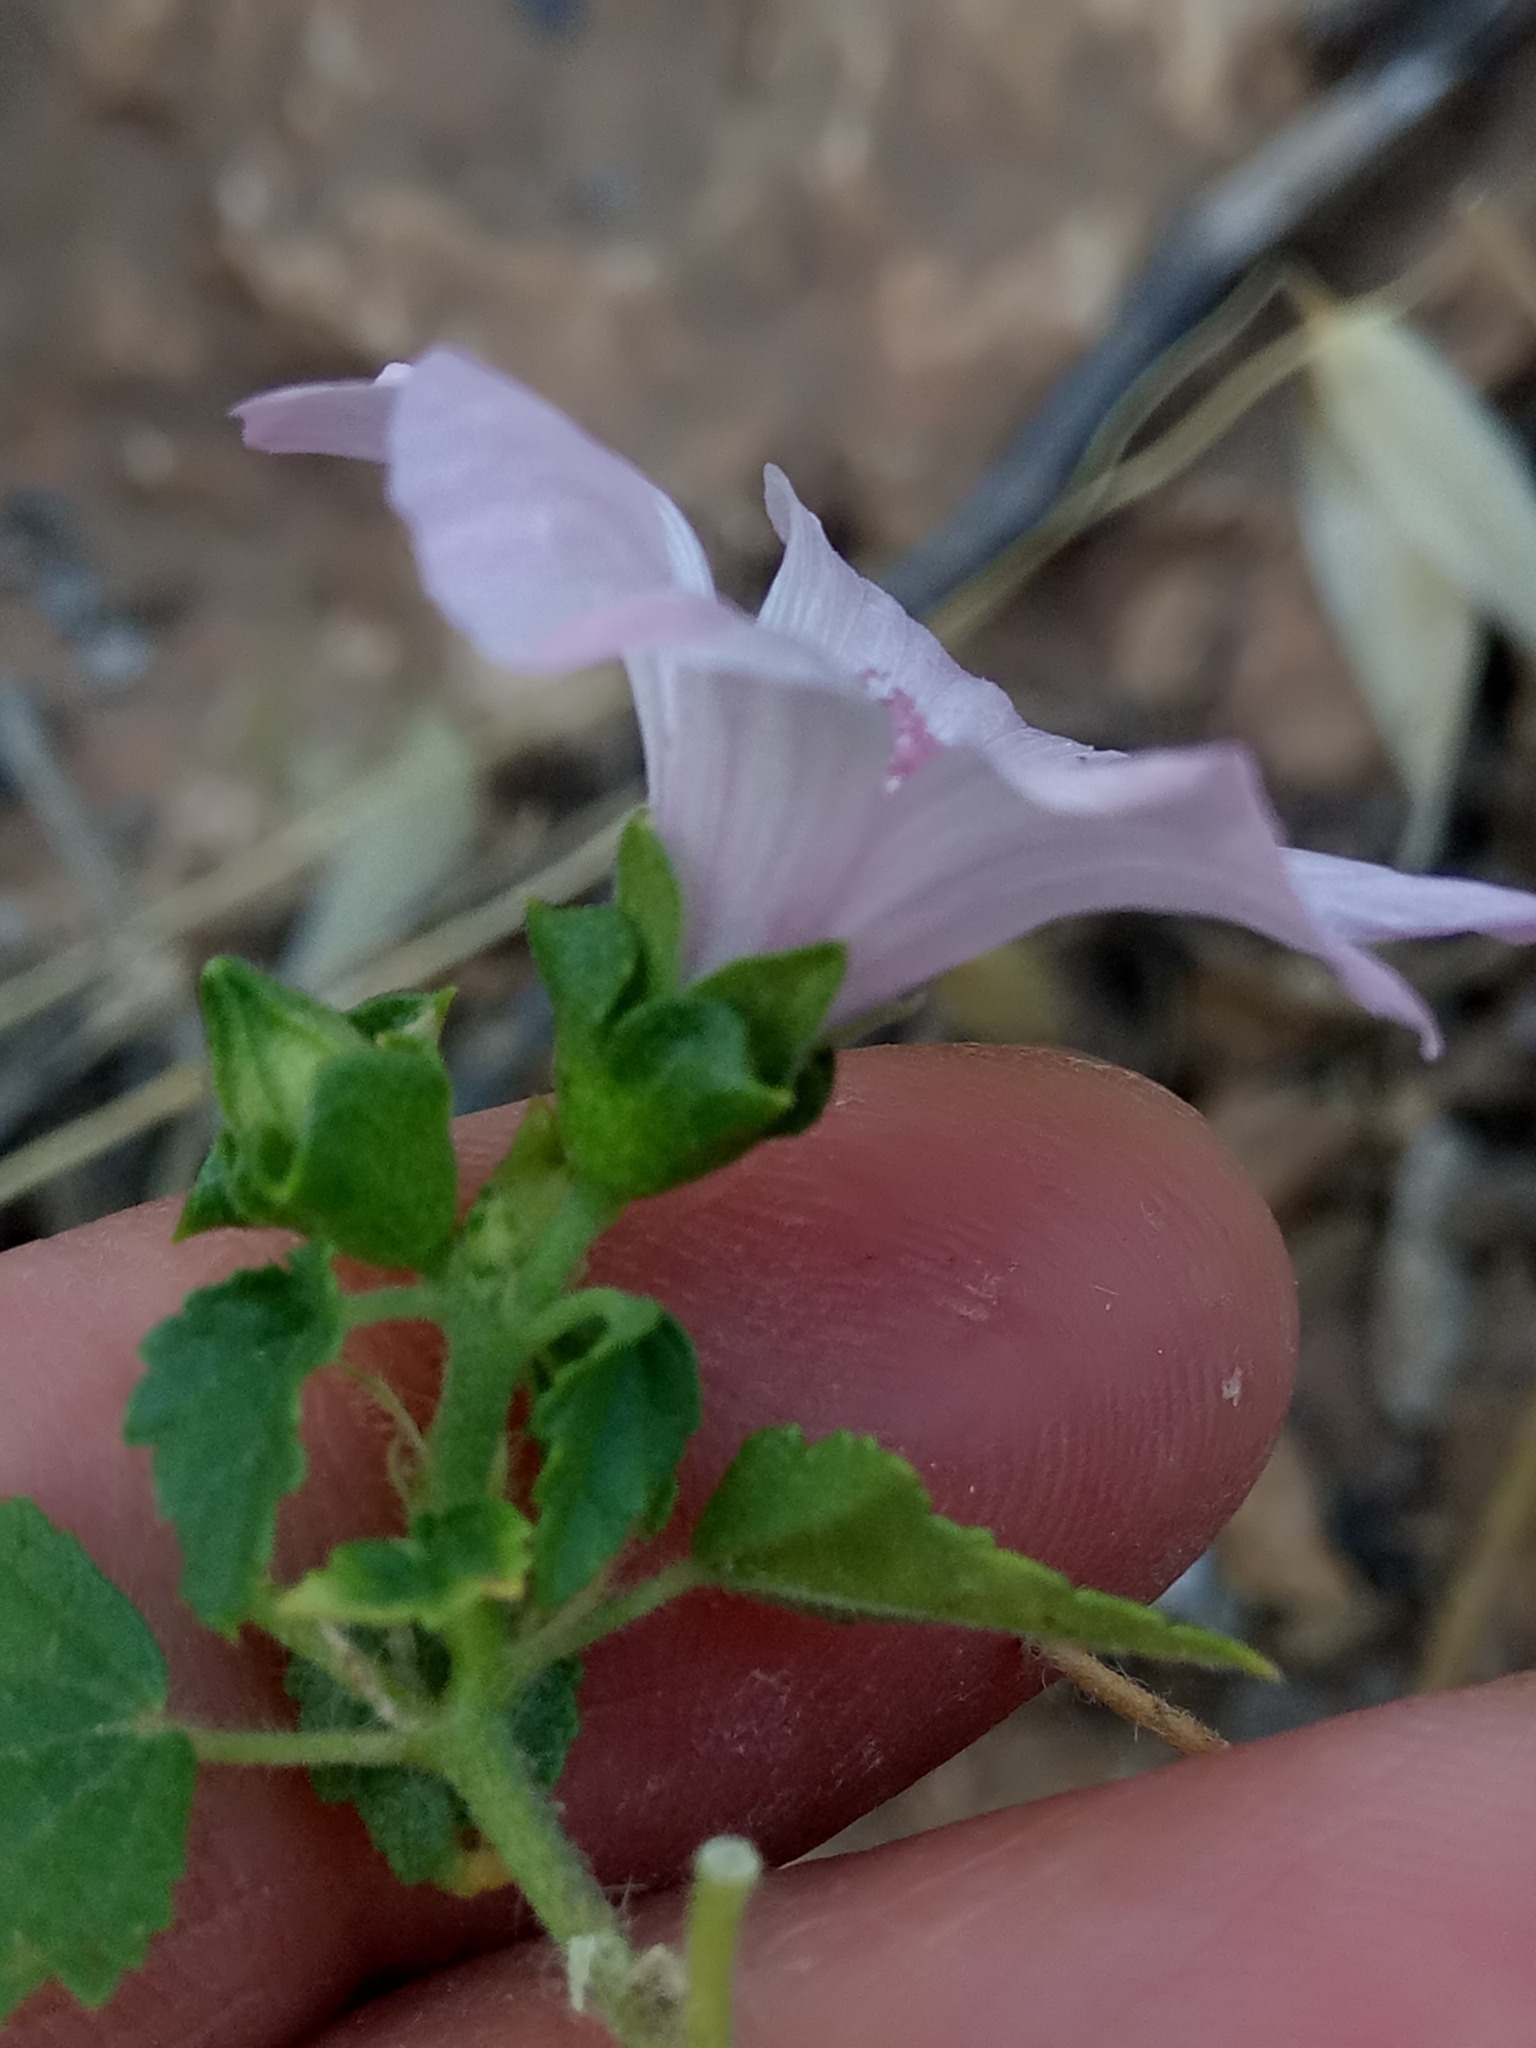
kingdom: Plantae
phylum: Tracheophyta
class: Magnoliopsida
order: Malvales
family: Malvaceae
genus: Malva
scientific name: Malva trimestris
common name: Royal mallow
